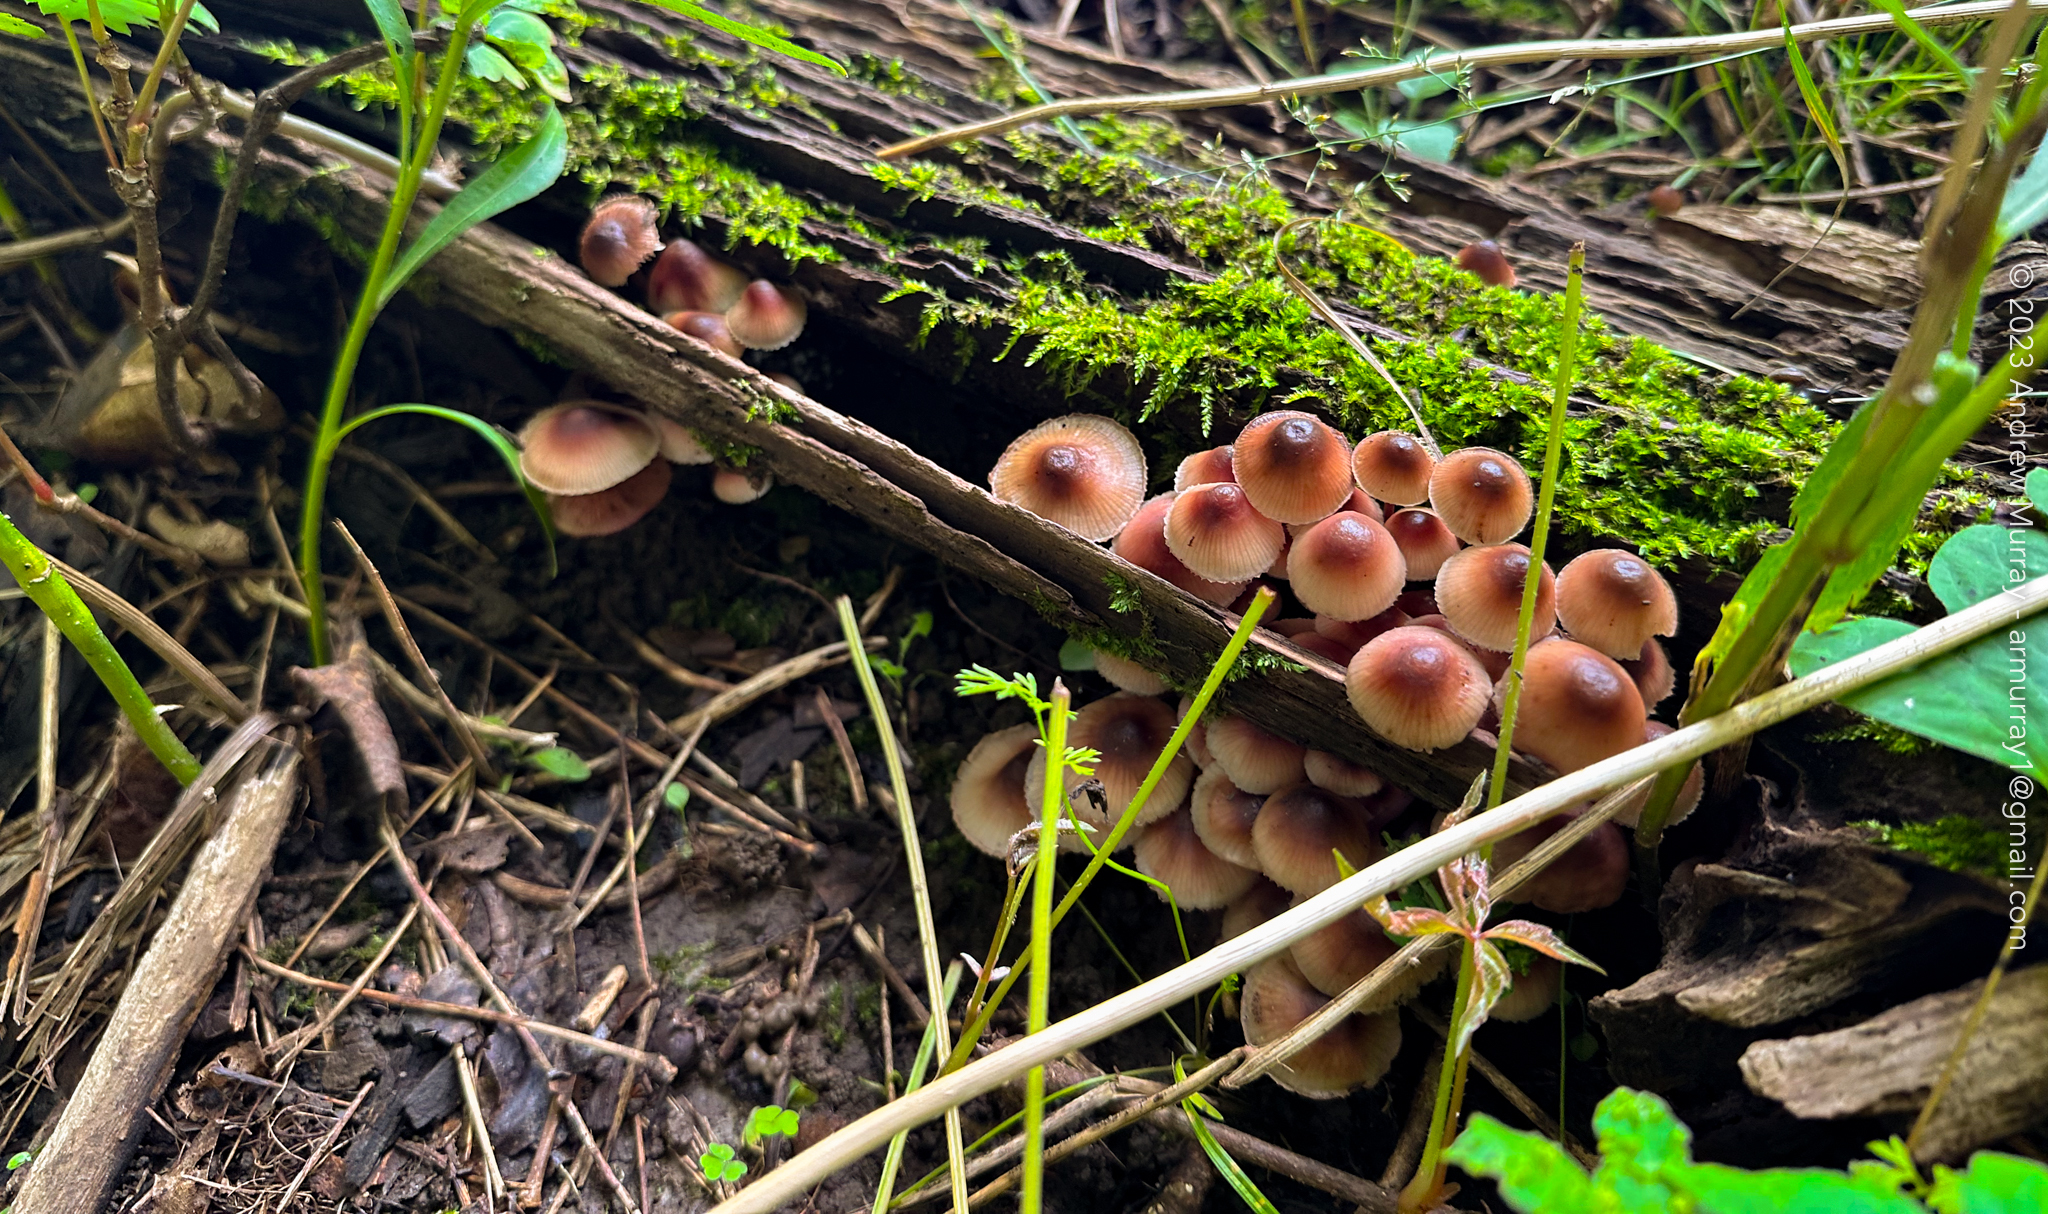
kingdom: Fungi
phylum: Basidiomycota
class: Agaricomycetes
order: Agaricales
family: Mycenaceae
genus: Mycena
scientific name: Mycena haematopus
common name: Burgundydrop bonnet
